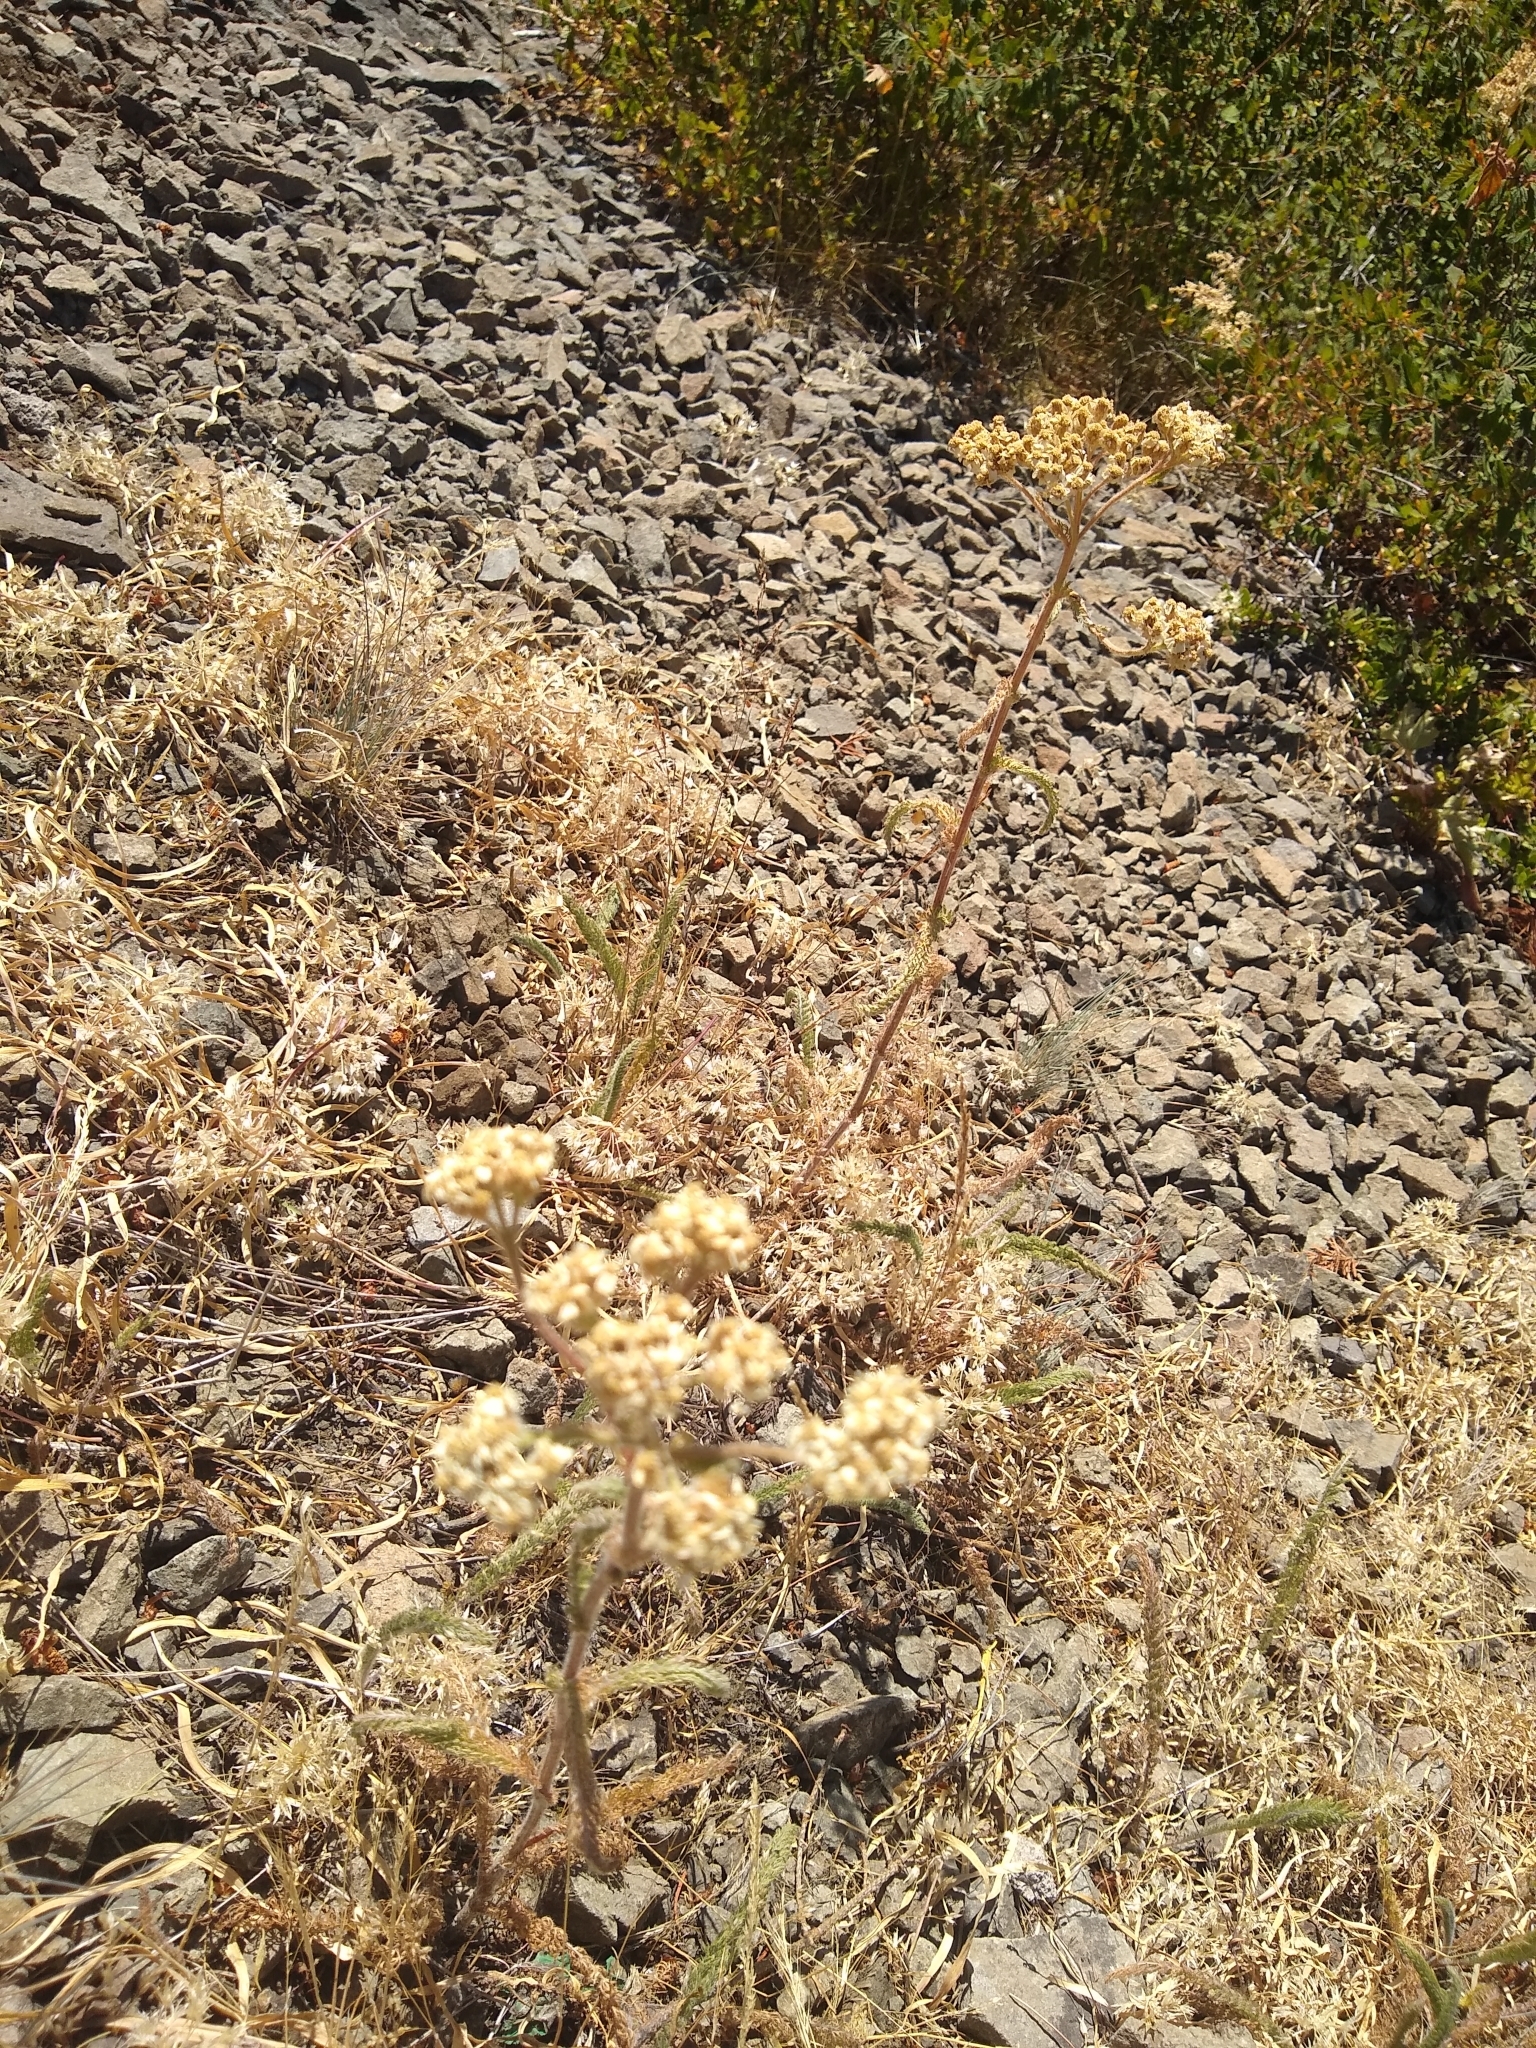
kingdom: Plantae
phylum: Tracheophyta
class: Magnoliopsida
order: Asterales
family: Asteraceae
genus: Achillea
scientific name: Achillea millefolium
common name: Yarrow
